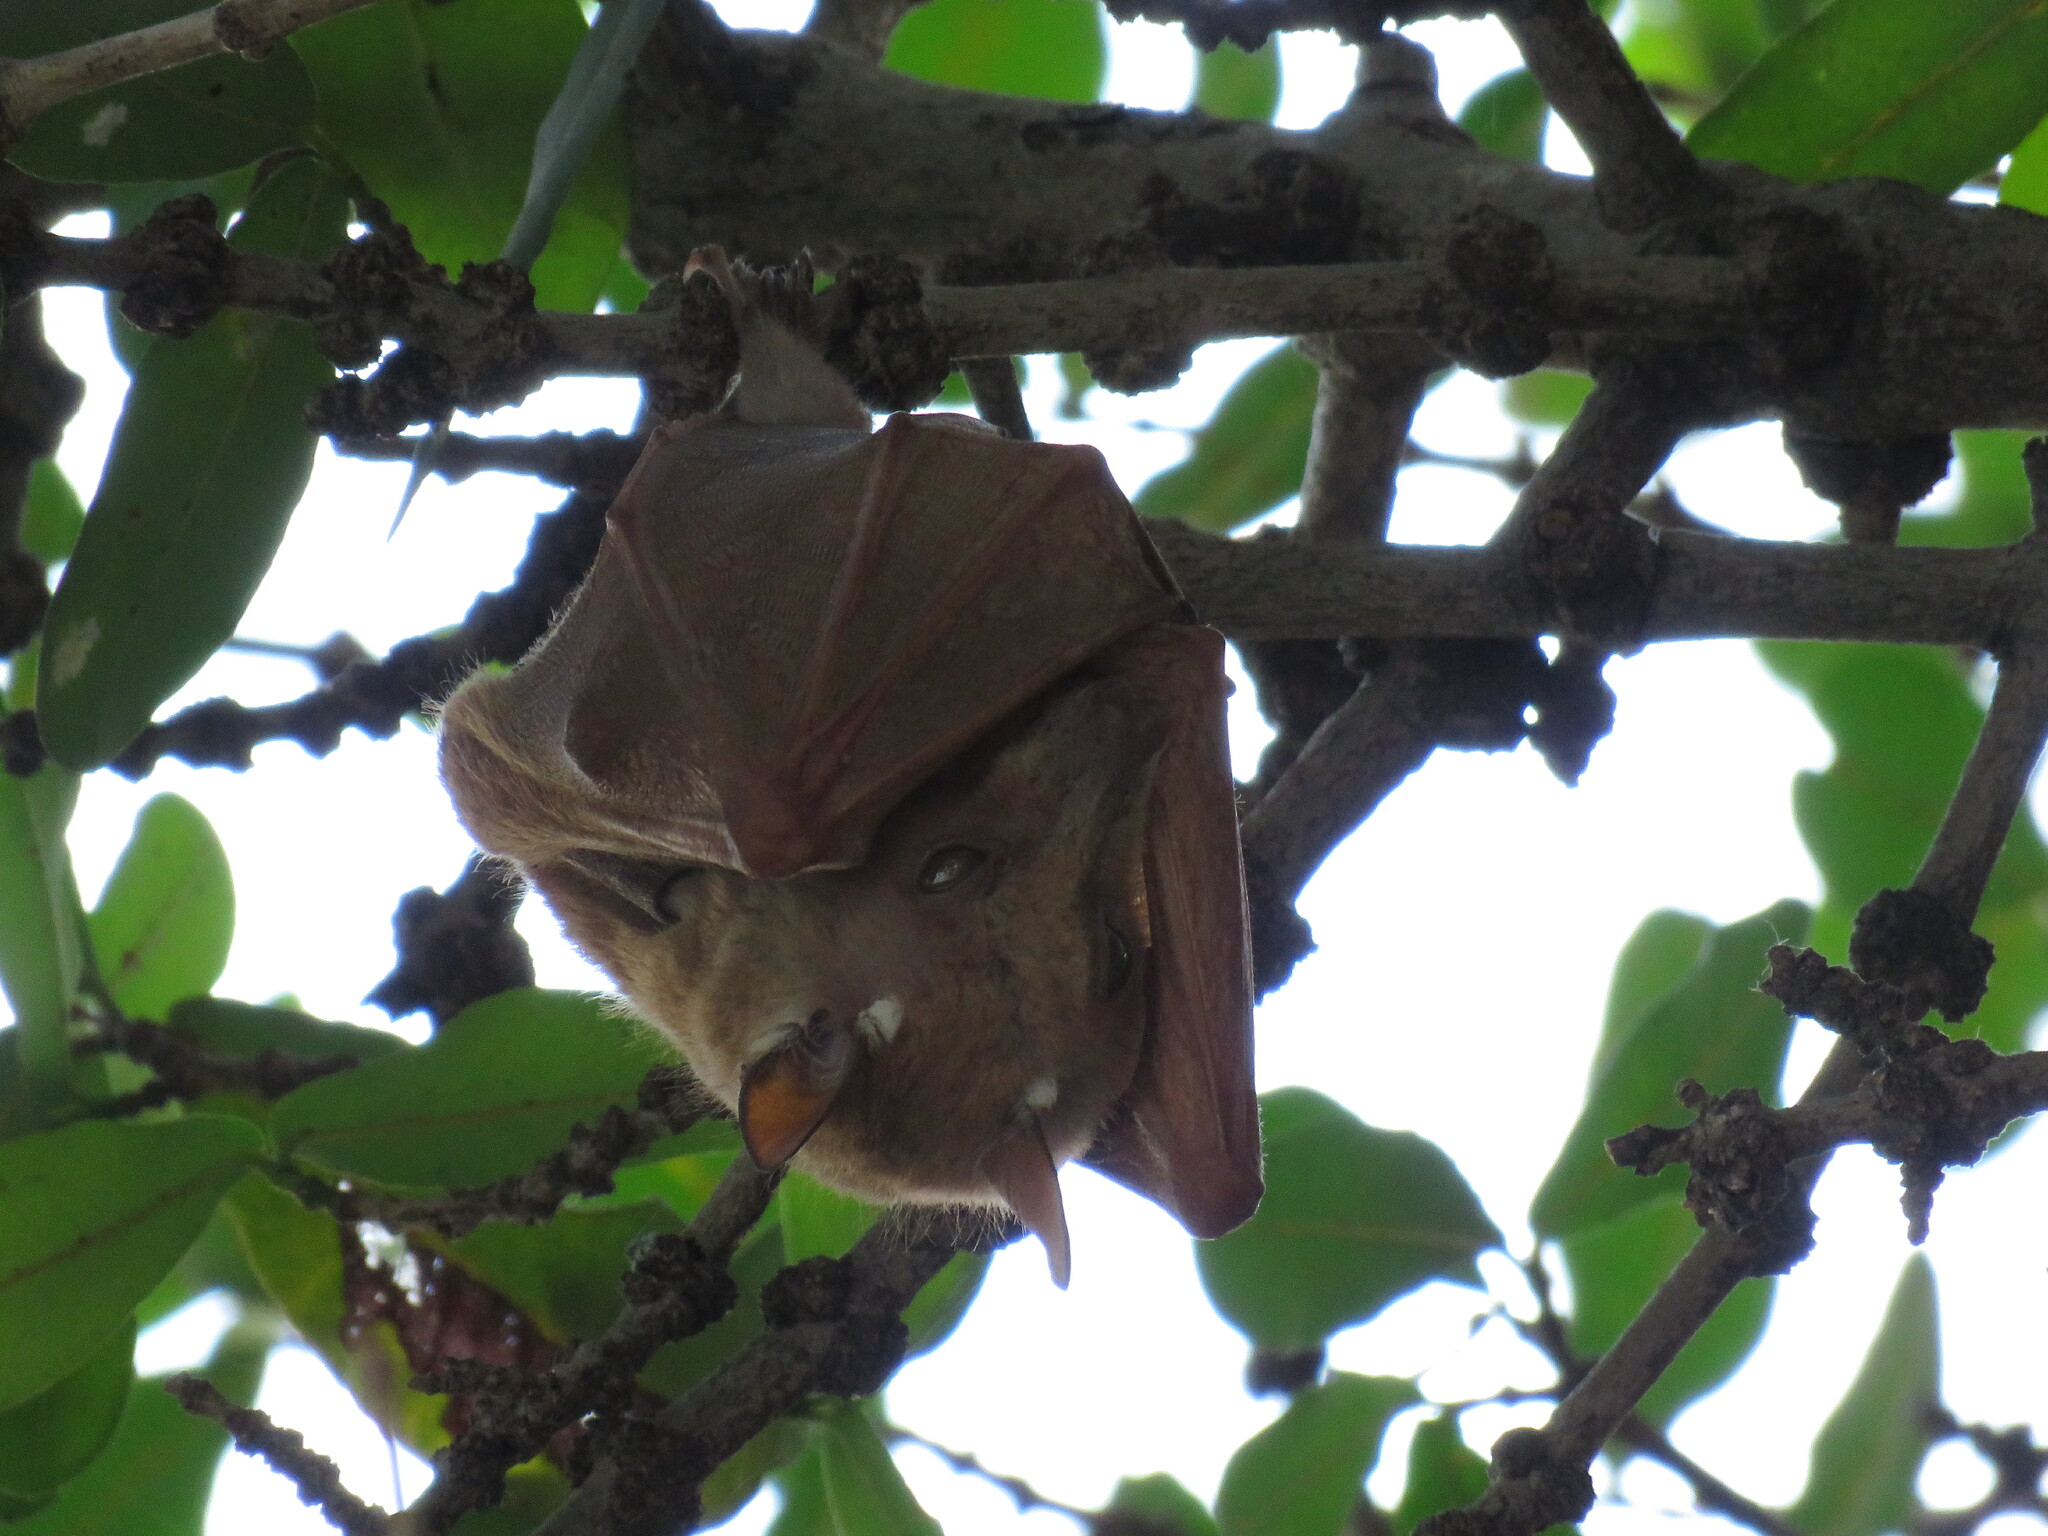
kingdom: Animalia
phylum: Chordata
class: Mammalia
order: Chiroptera
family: Pteropodidae
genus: Epomophorus
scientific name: Epomophorus crypturus
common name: Smaller epauletted fruit bat
